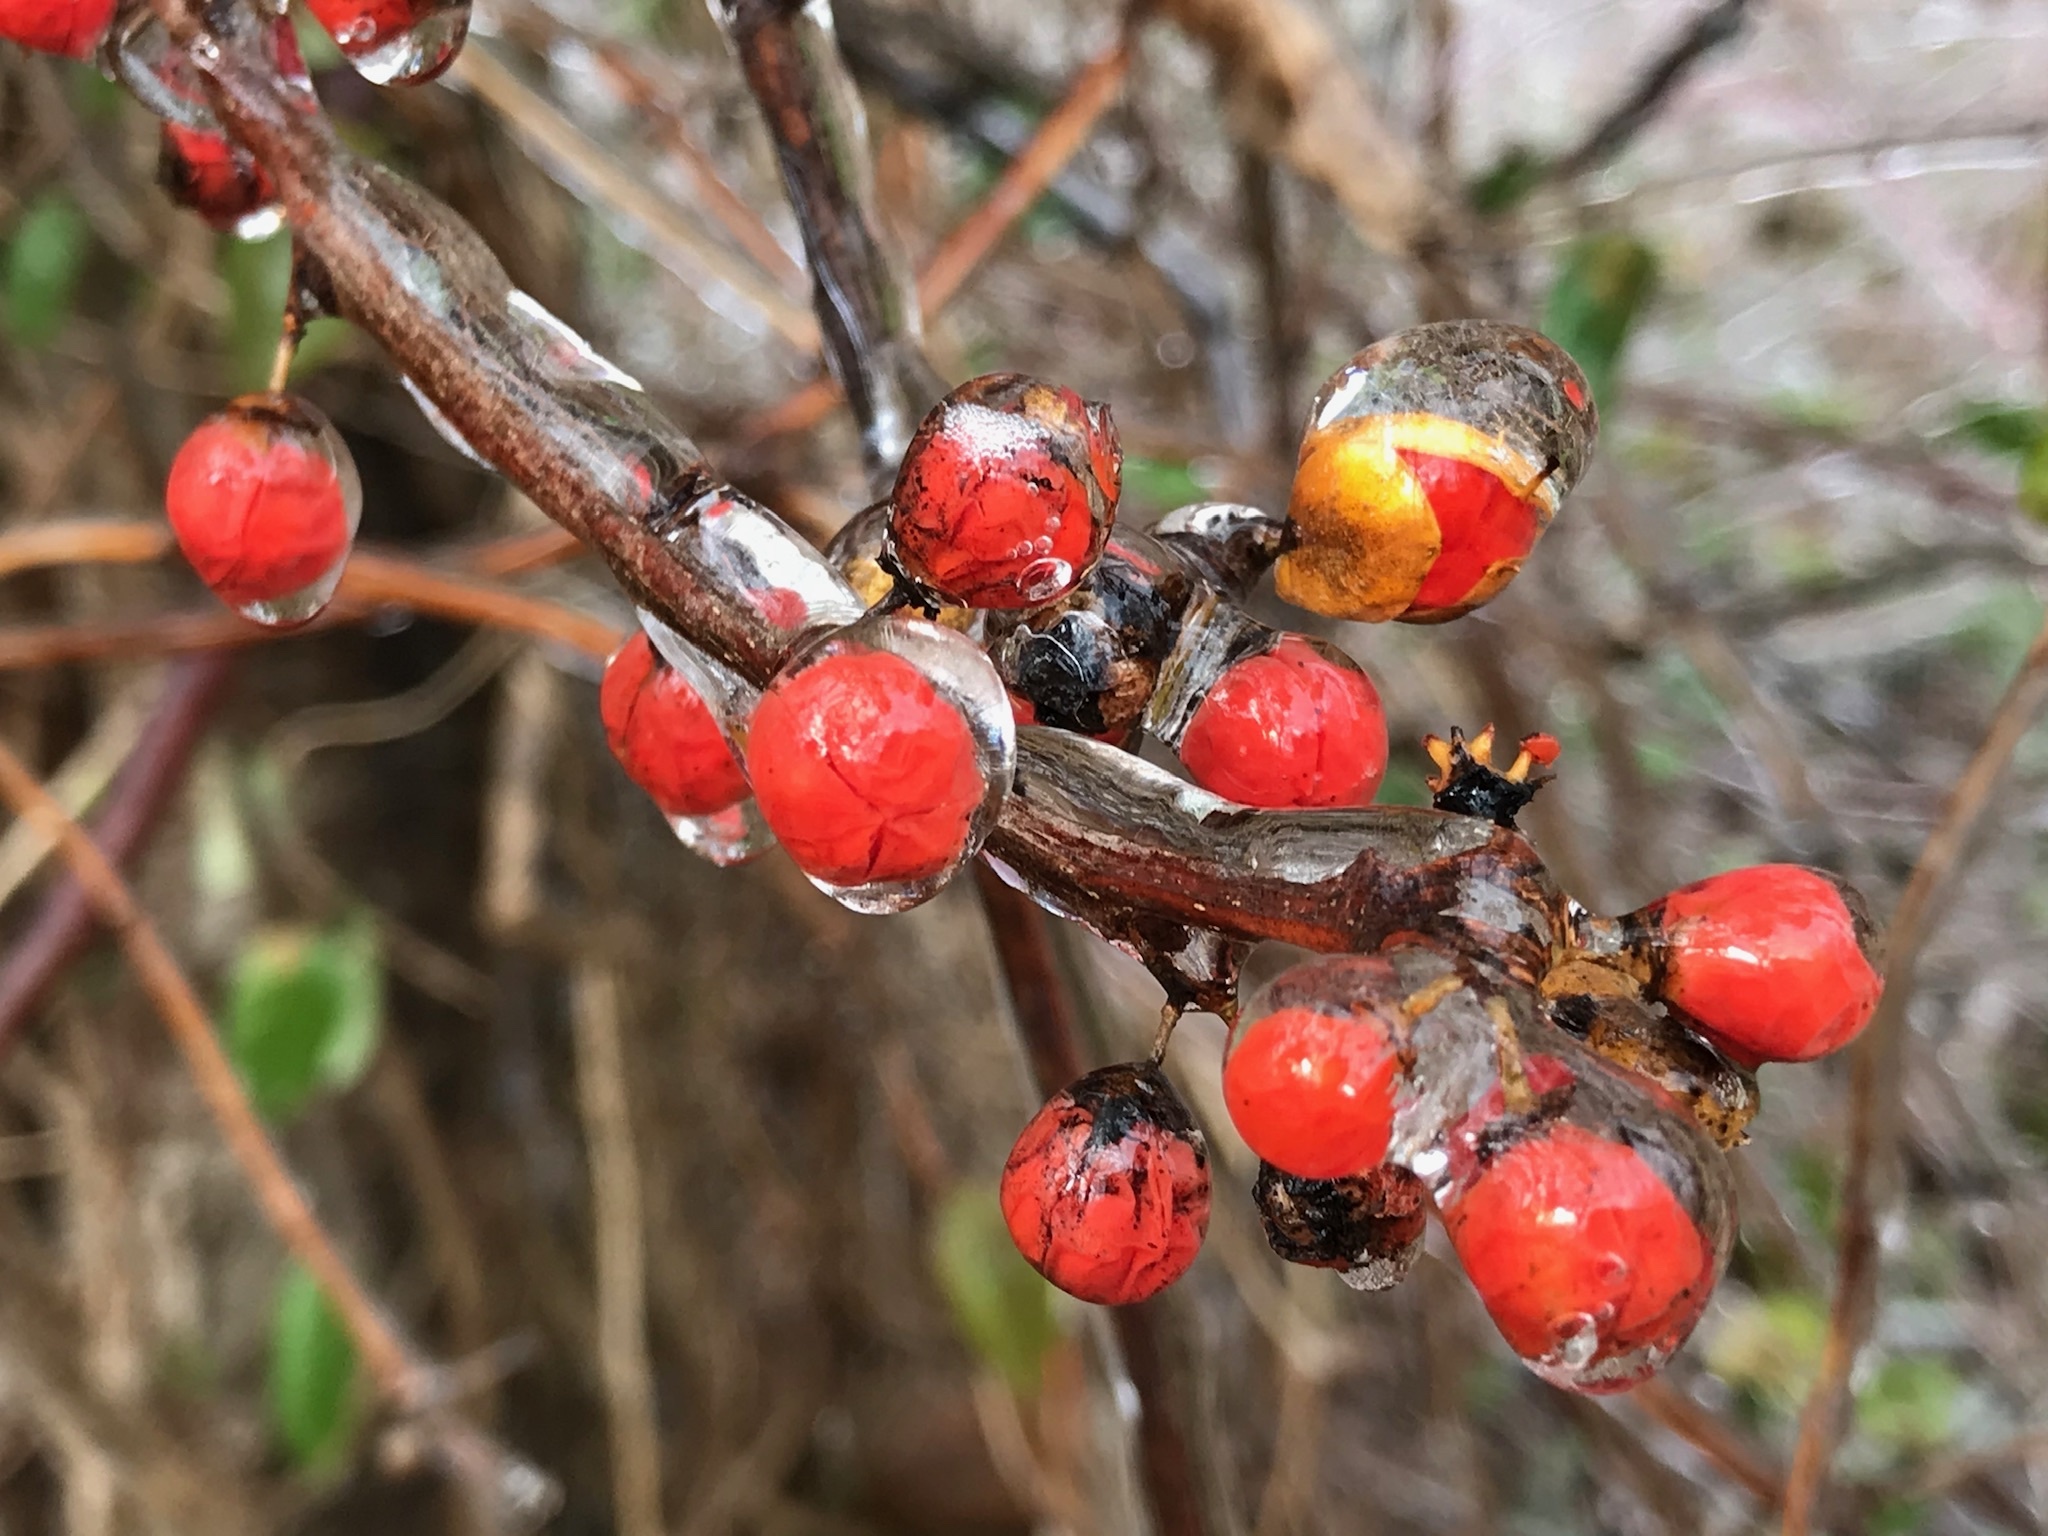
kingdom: Plantae
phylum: Tracheophyta
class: Magnoliopsida
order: Celastrales
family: Celastraceae
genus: Celastrus
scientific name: Celastrus orbiculatus
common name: Oriental bittersweet
